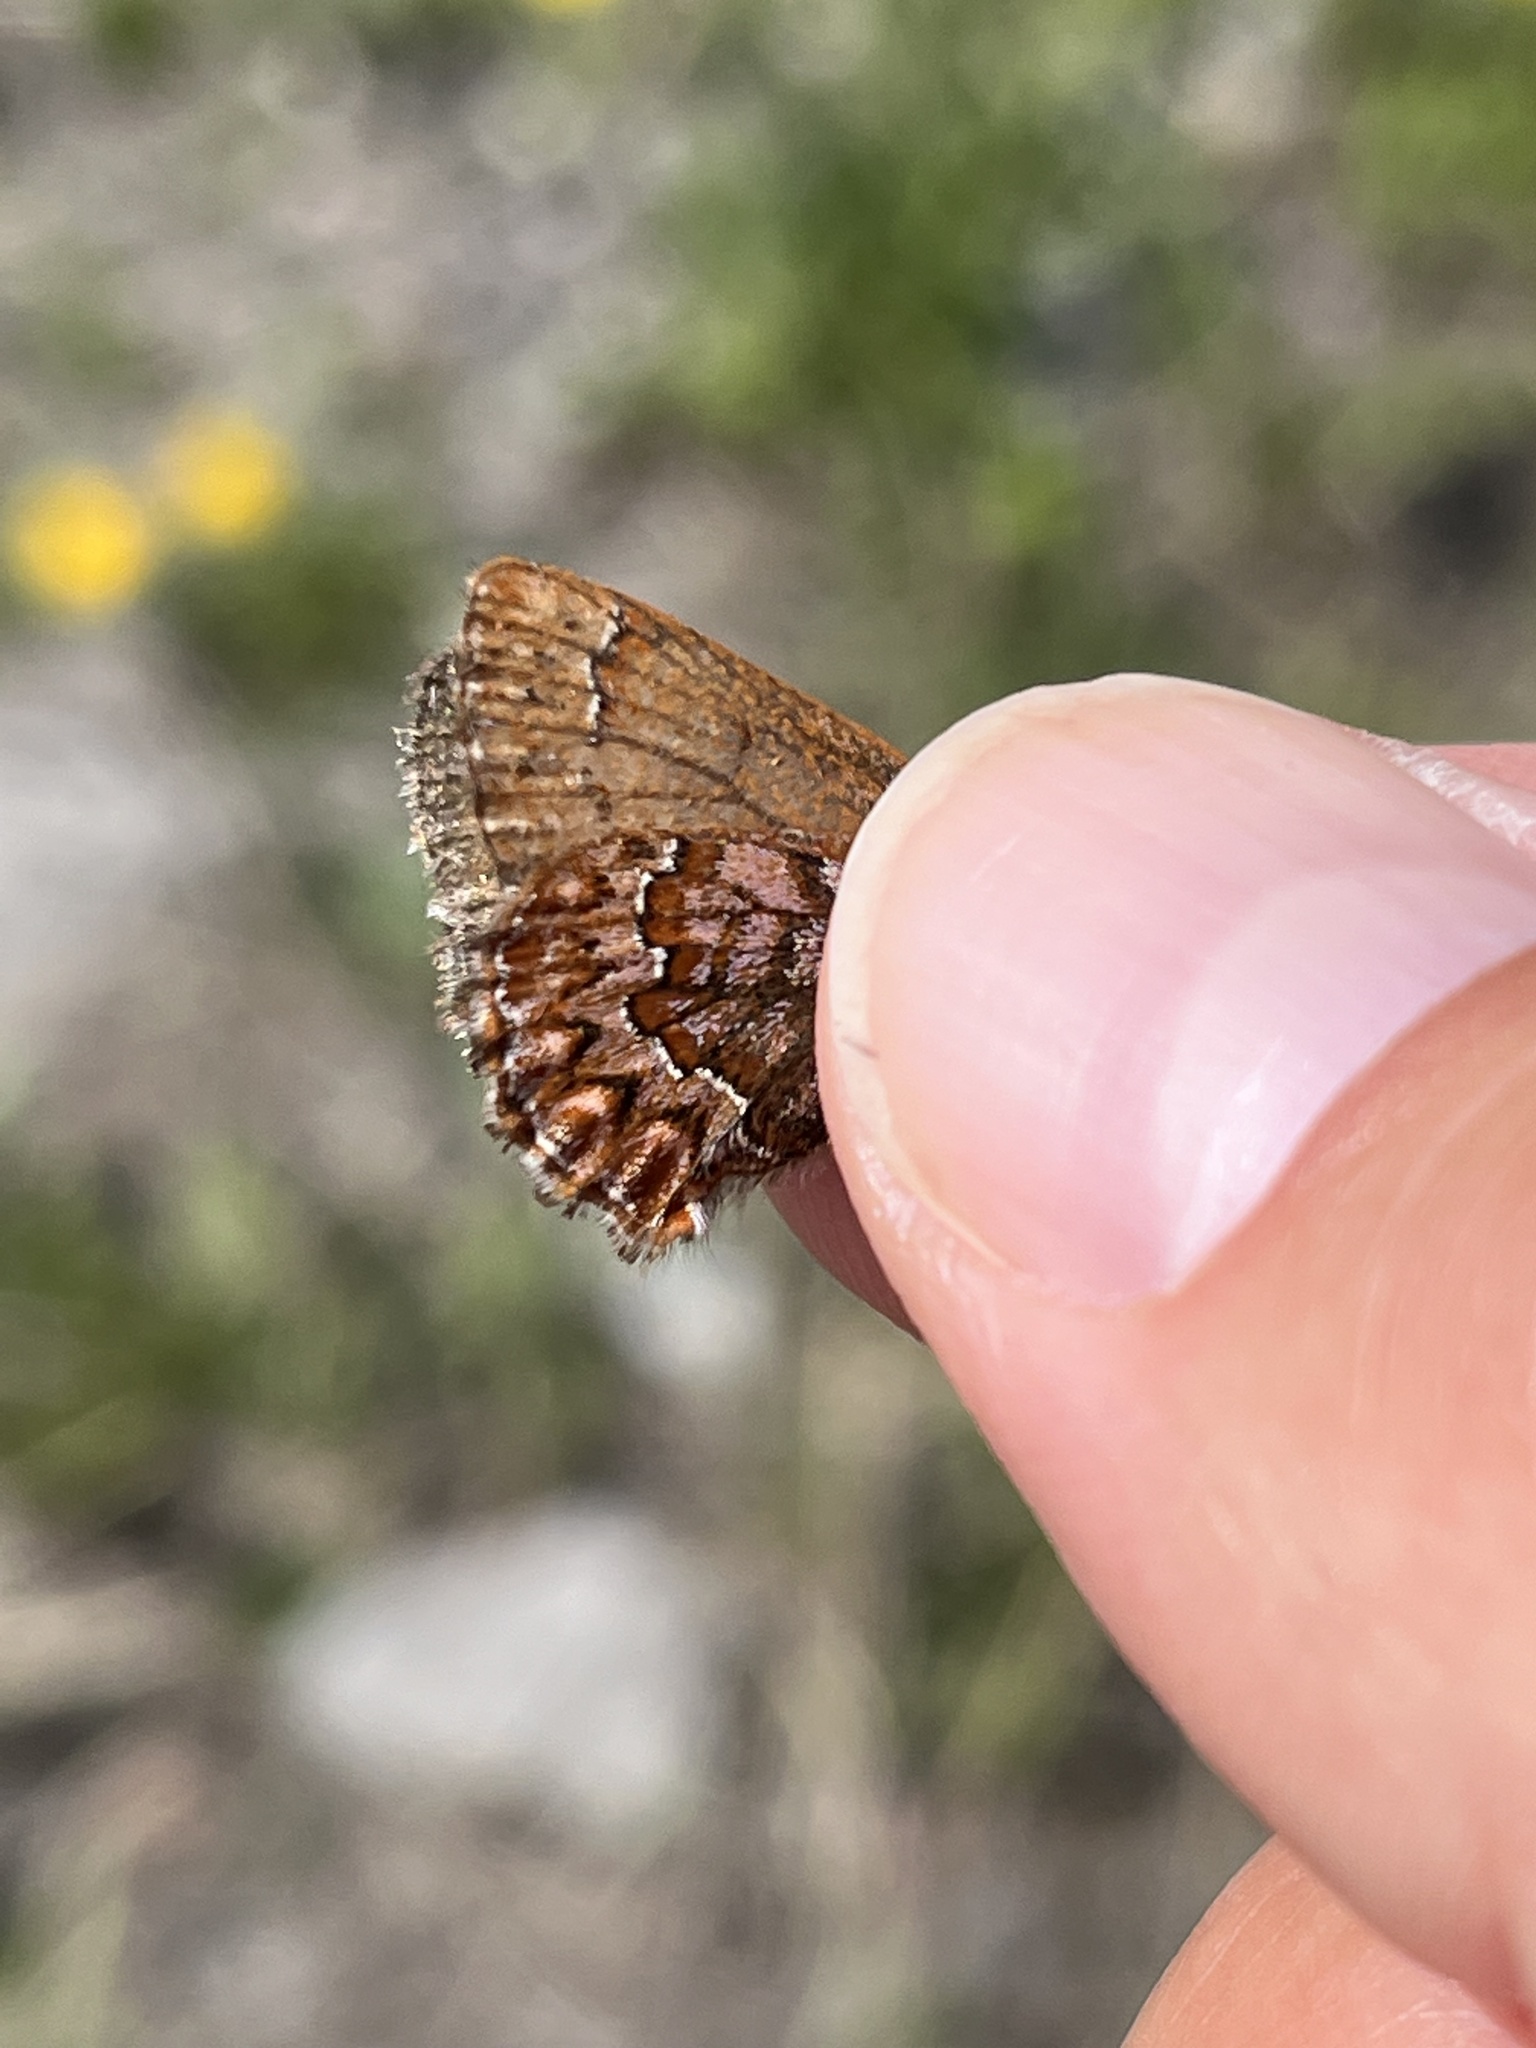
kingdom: Animalia
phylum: Arthropoda
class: Insecta
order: Lepidoptera
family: Lycaenidae
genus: Incisalia
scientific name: Incisalia eryphon
